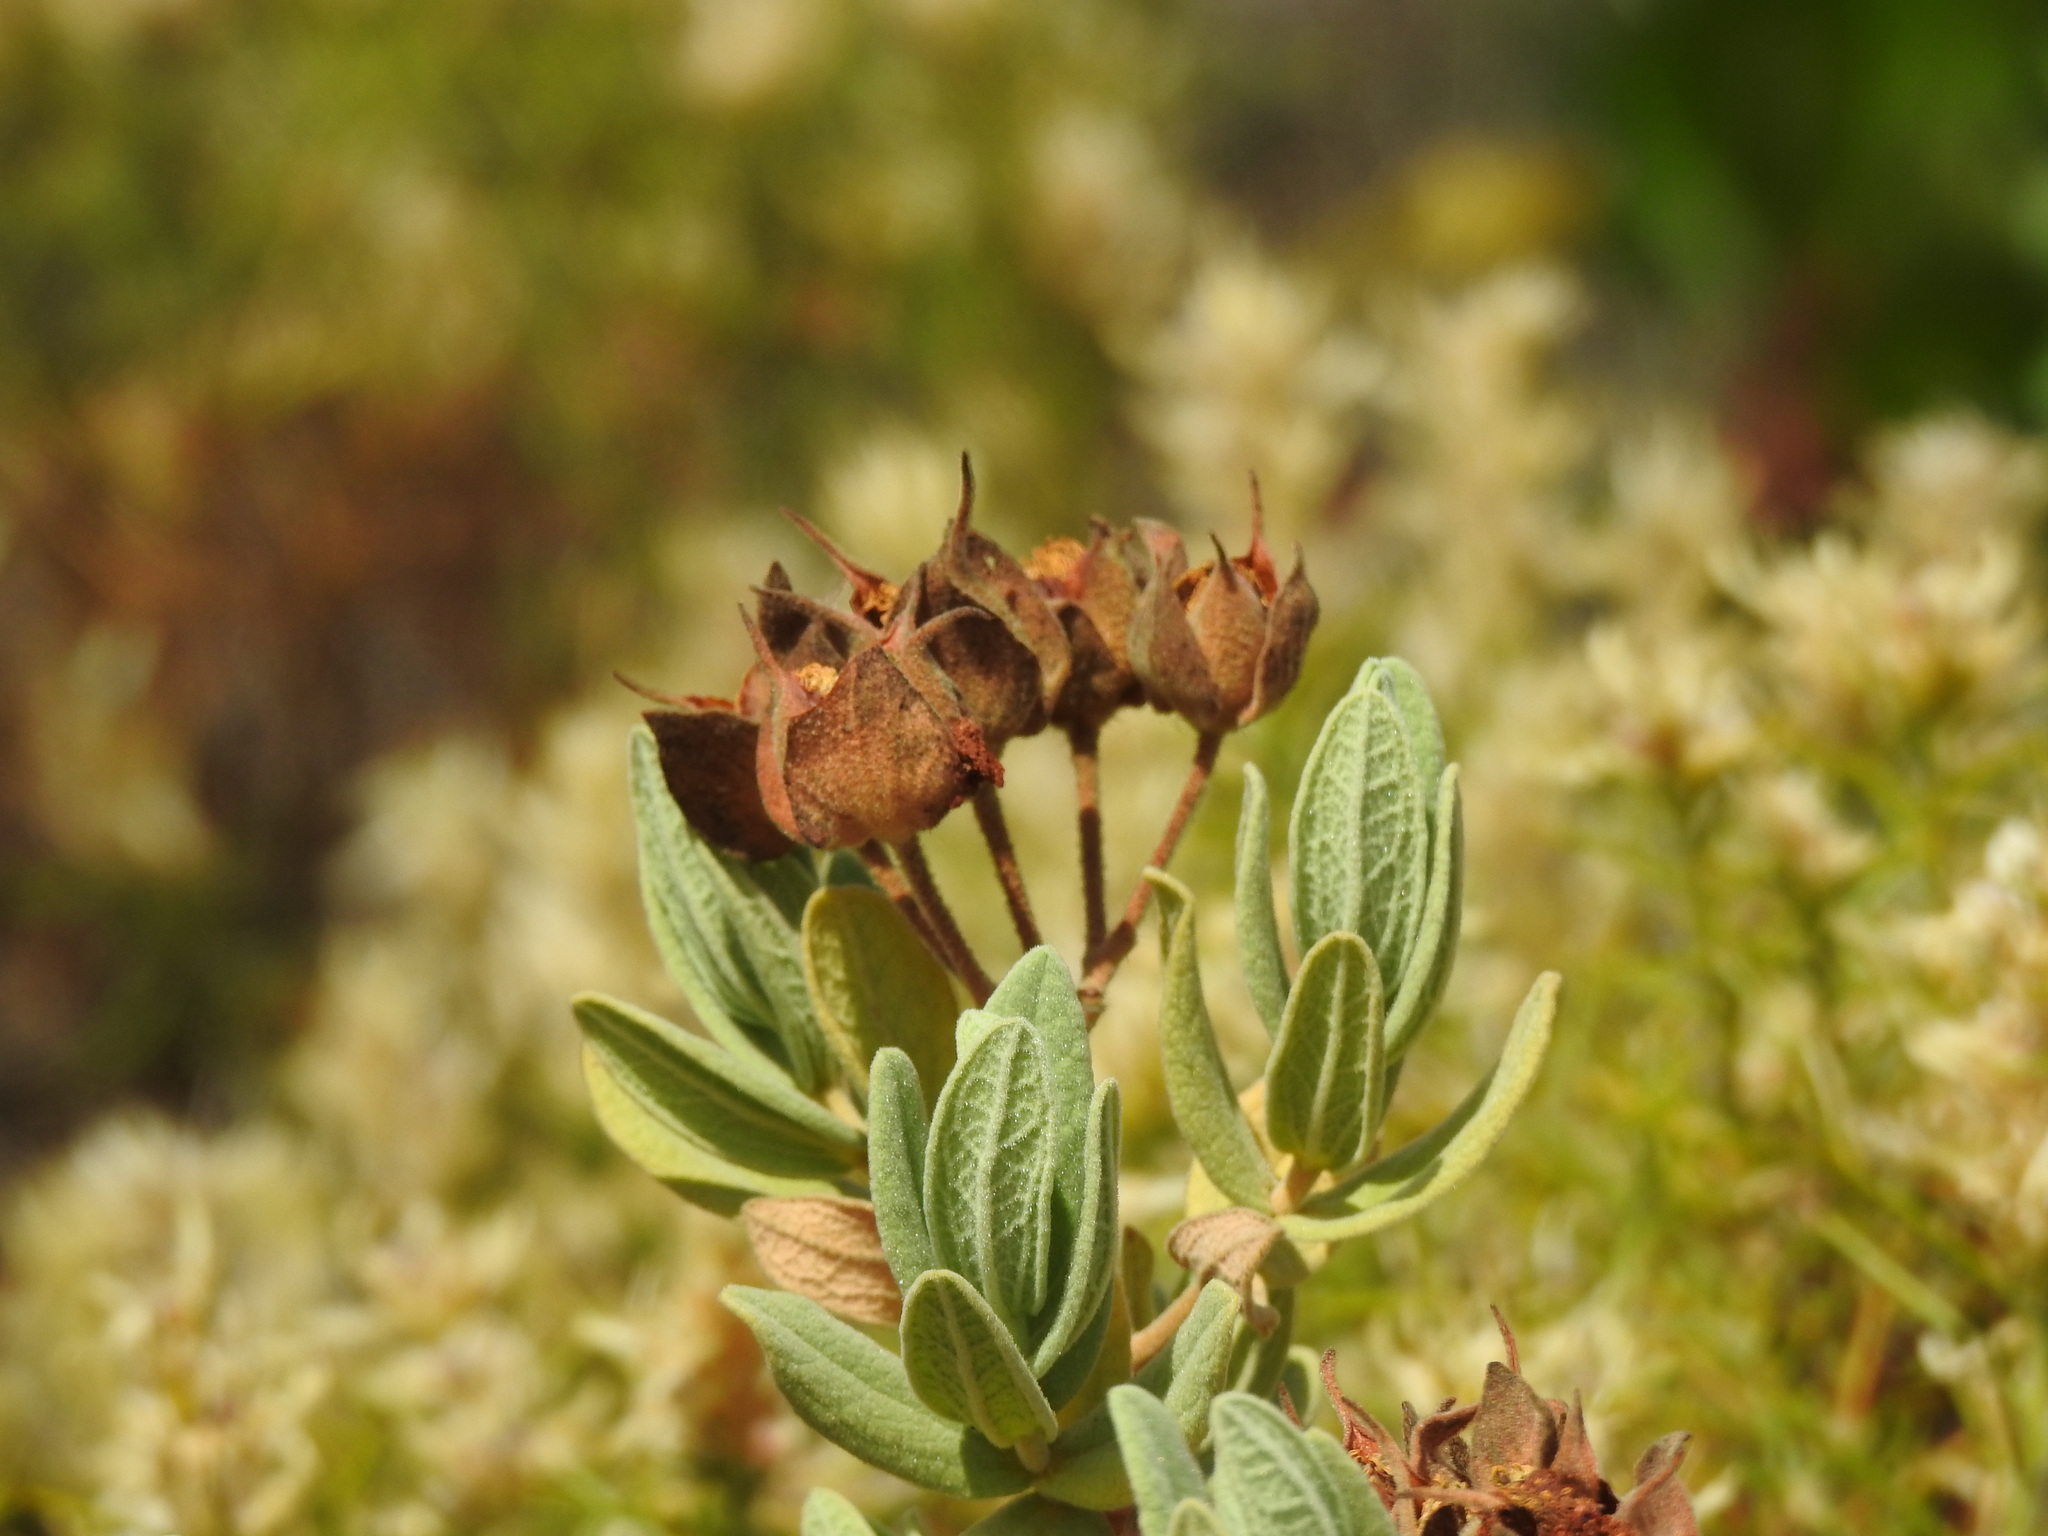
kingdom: Plantae
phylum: Tracheophyta
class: Magnoliopsida
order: Malvales
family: Cistaceae
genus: Cistus
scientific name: Cistus albidus
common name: White-leaf rock-rose
